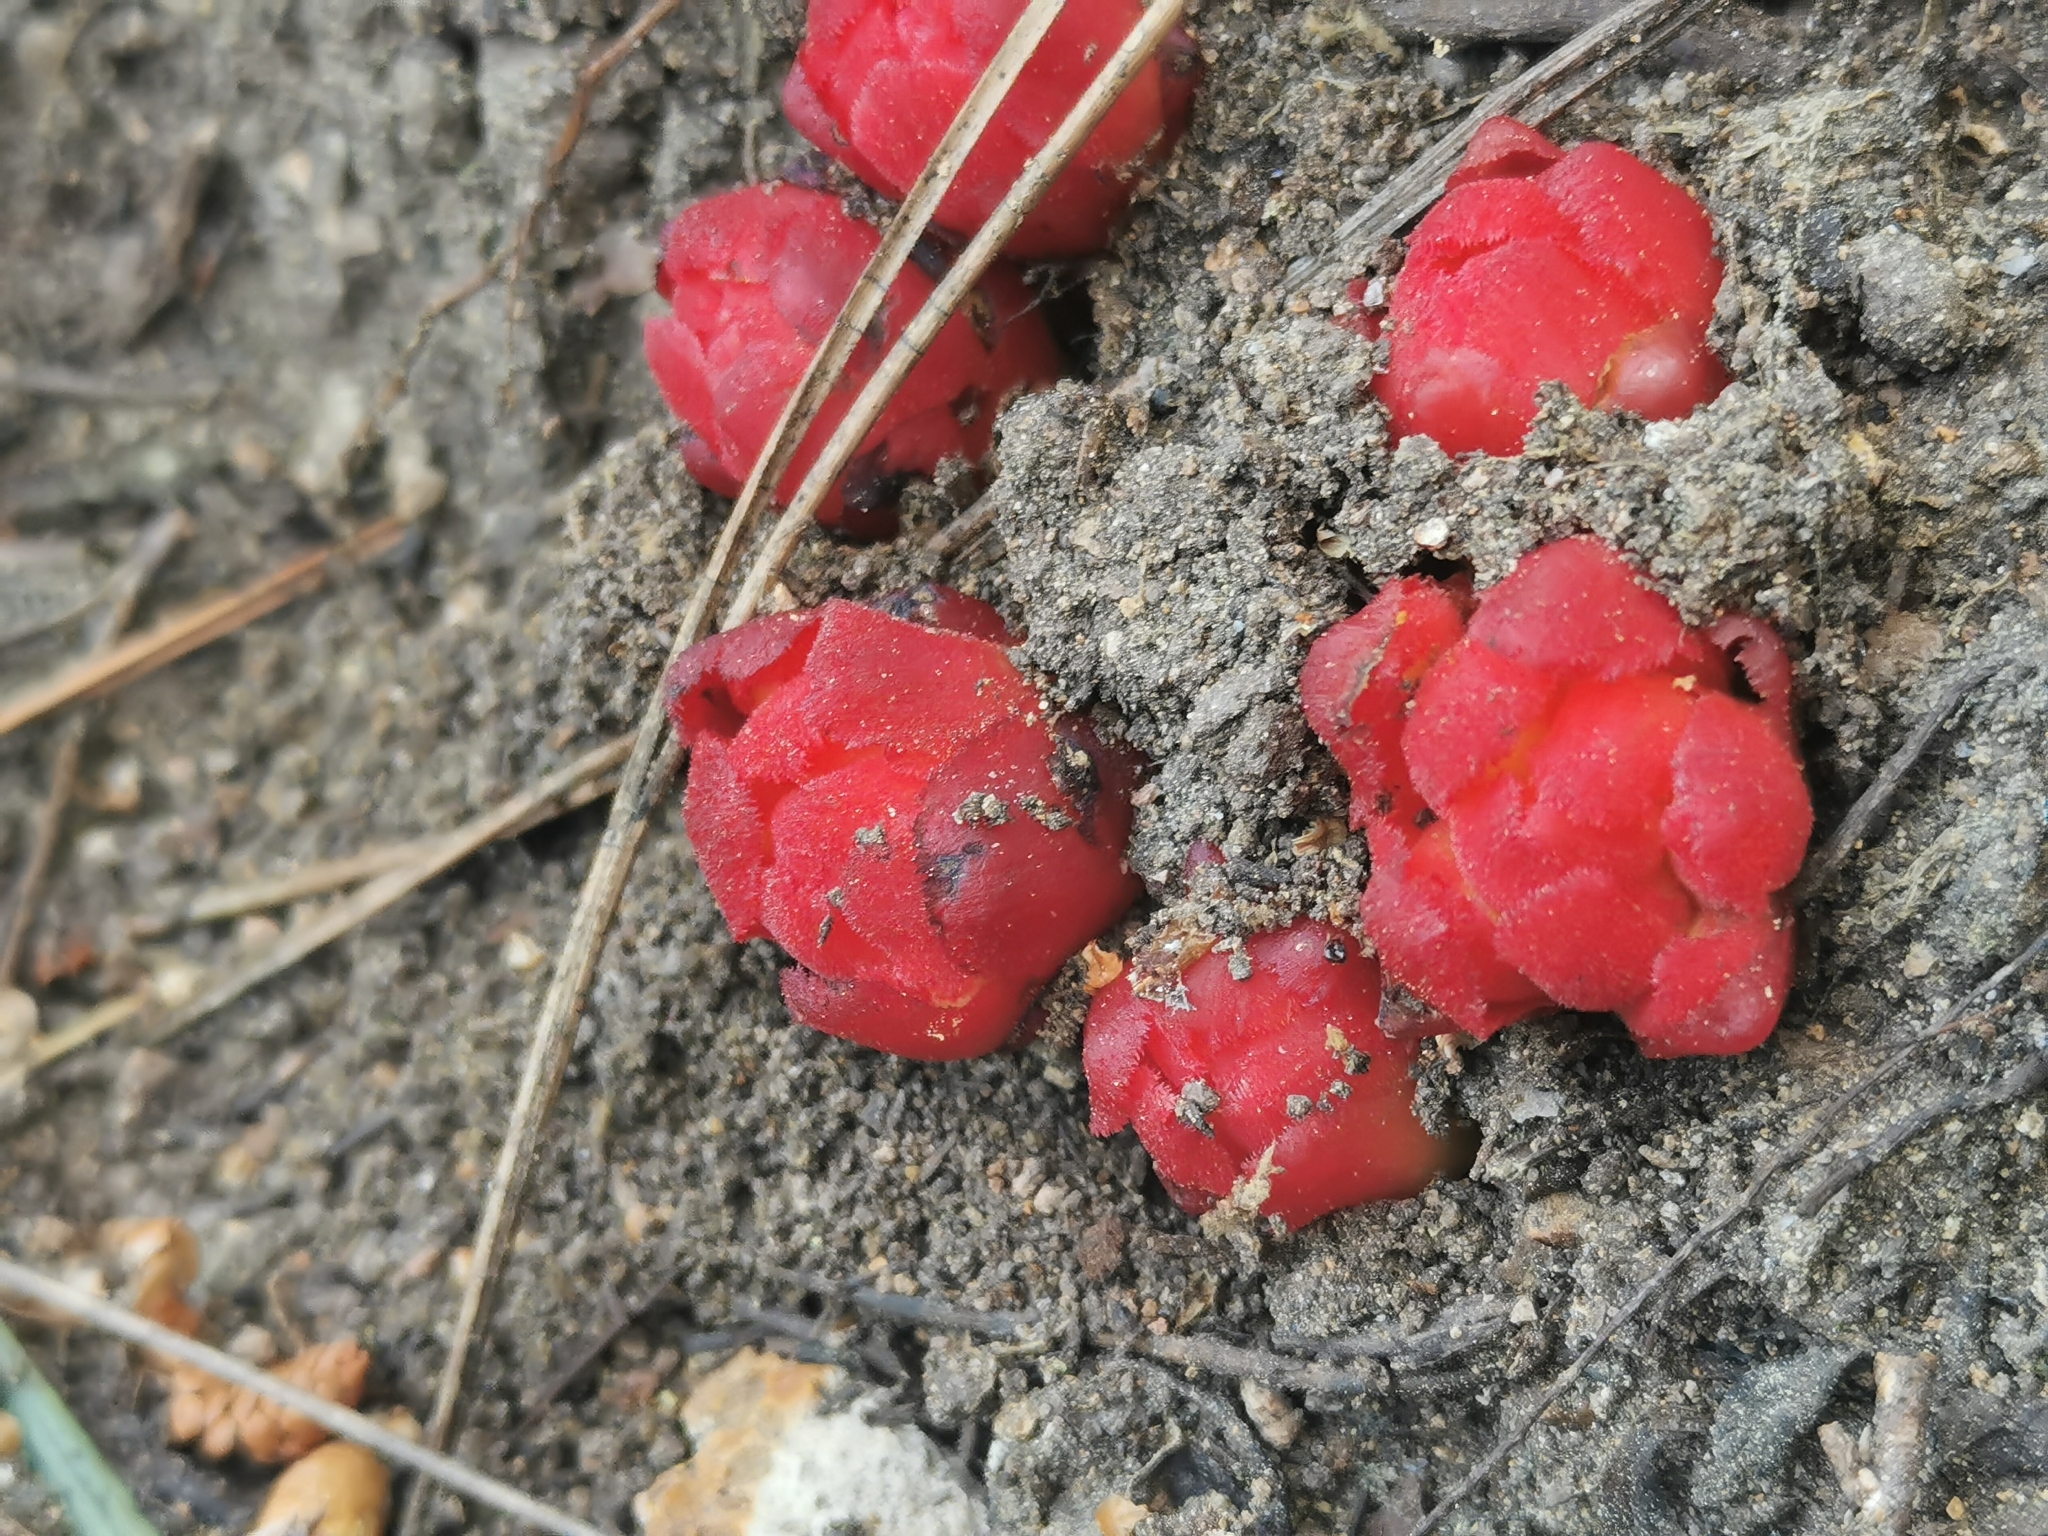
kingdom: Plantae
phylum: Tracheophyta
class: Magnoliopsida
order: Malvales
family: Cytinaceae
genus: Cytinus
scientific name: Cytinus ruber
